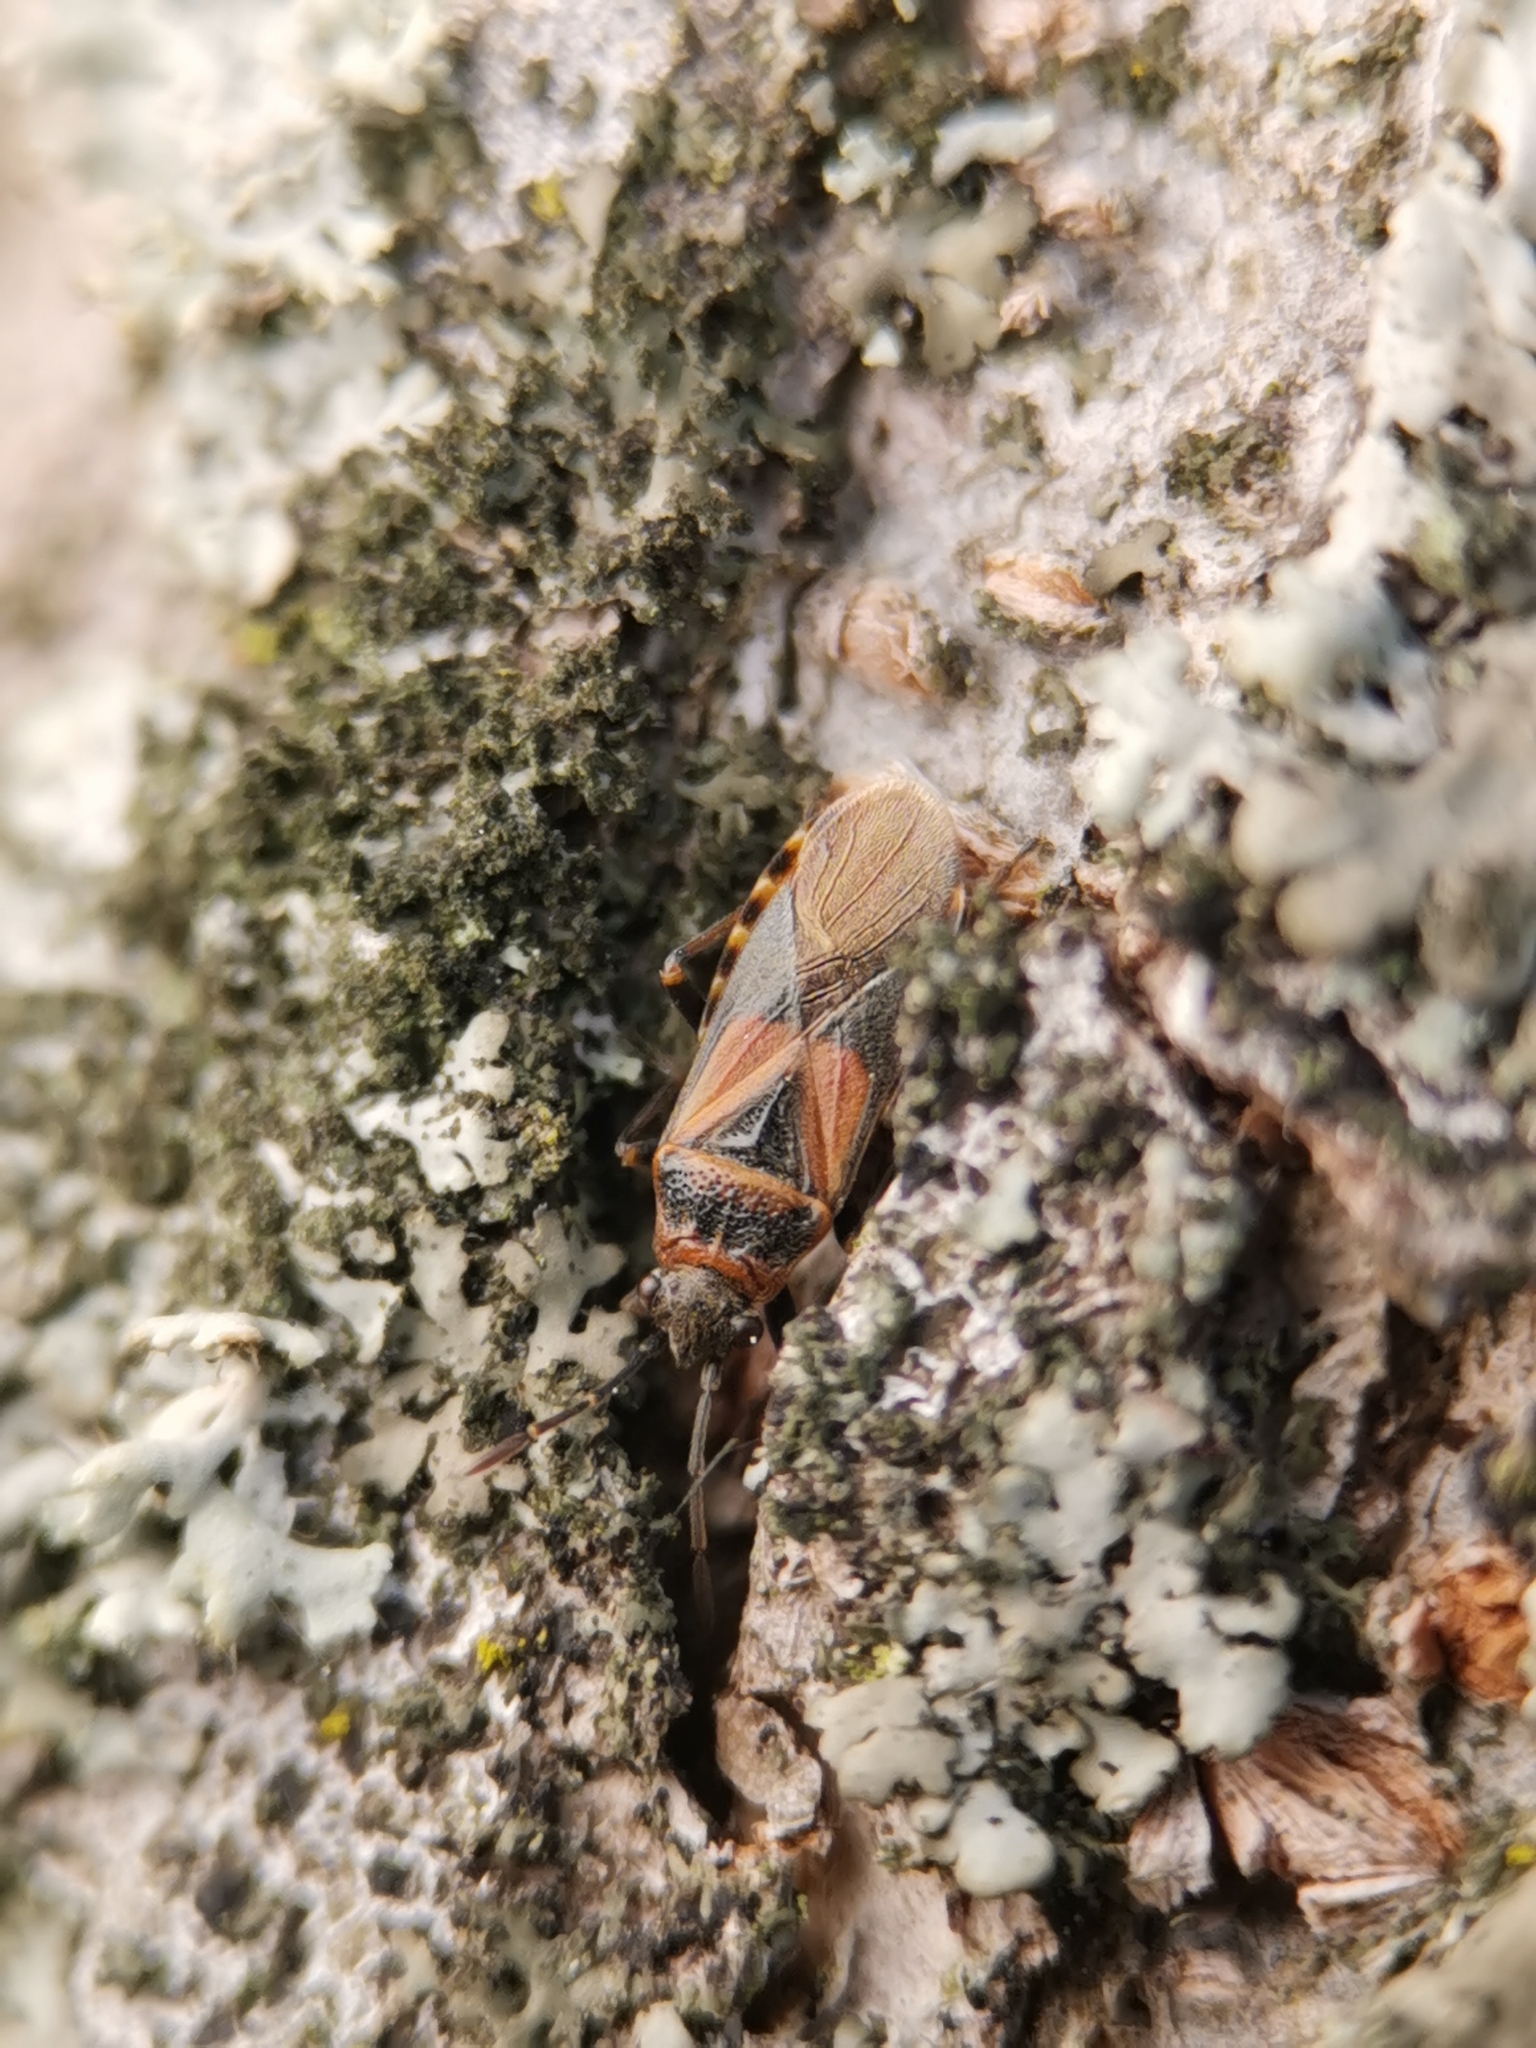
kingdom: Animalia
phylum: Arthropoda
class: Insecta
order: Hemiptera
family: Lygaeidae
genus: Arocatus
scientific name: Arocatus melanocephalus
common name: Lygaeid bug
